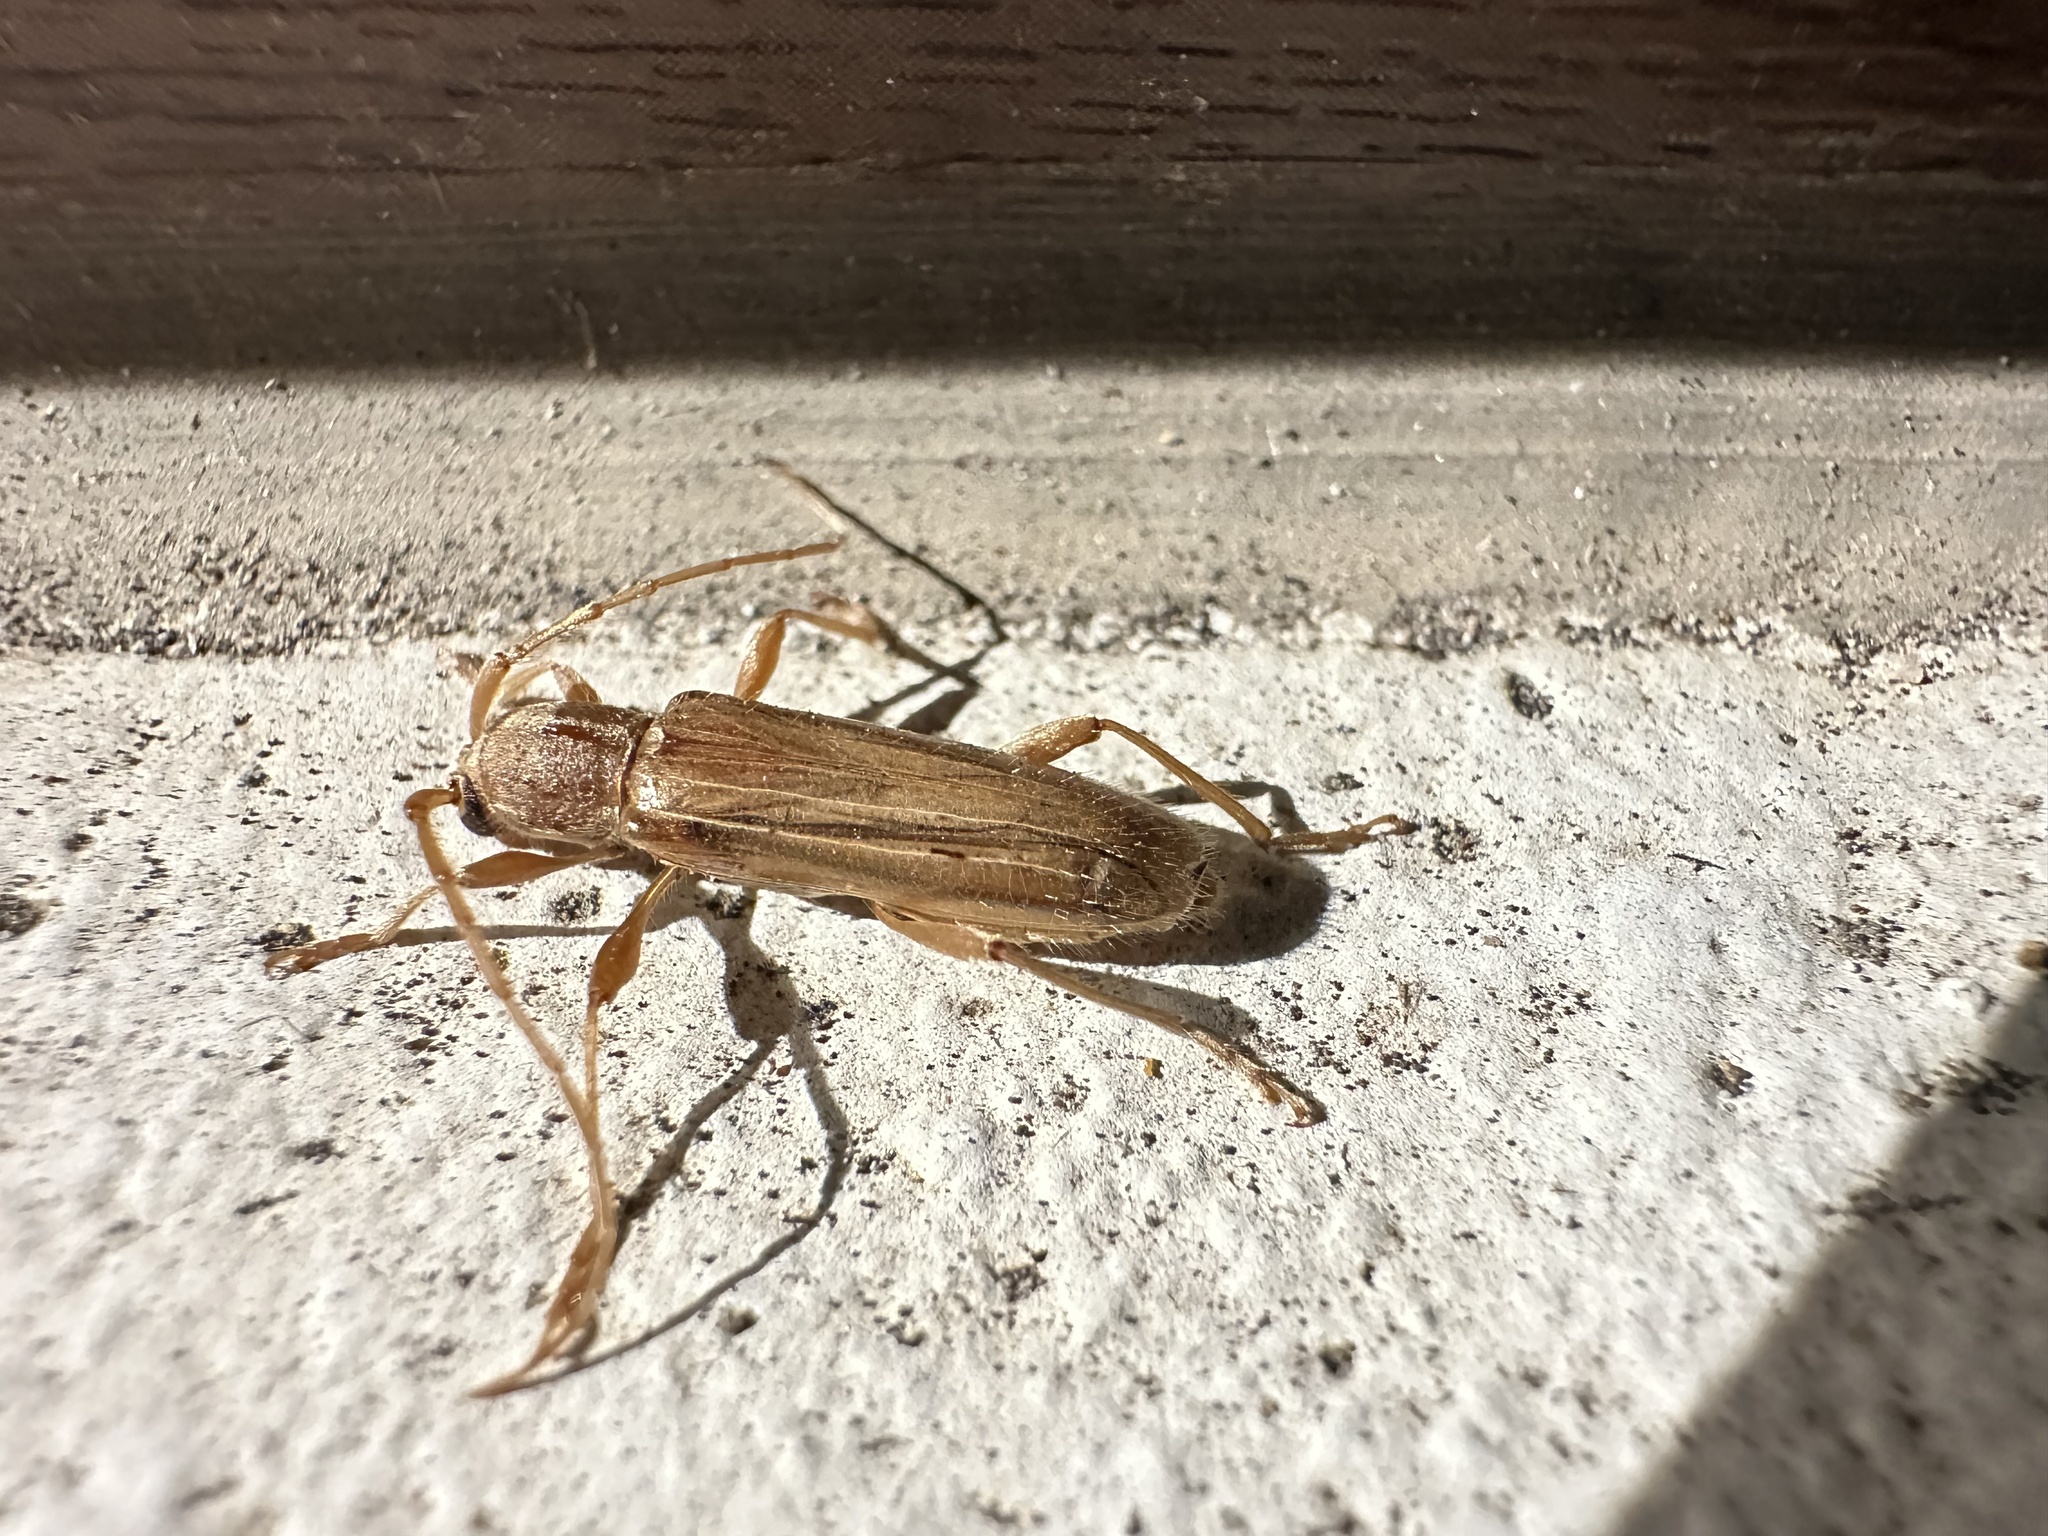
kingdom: Animalia
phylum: Arthropoda
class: Insecta
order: Coleoptera
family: Cerambycidae
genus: Xenocompsa
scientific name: Xenocompsa flavonitida
